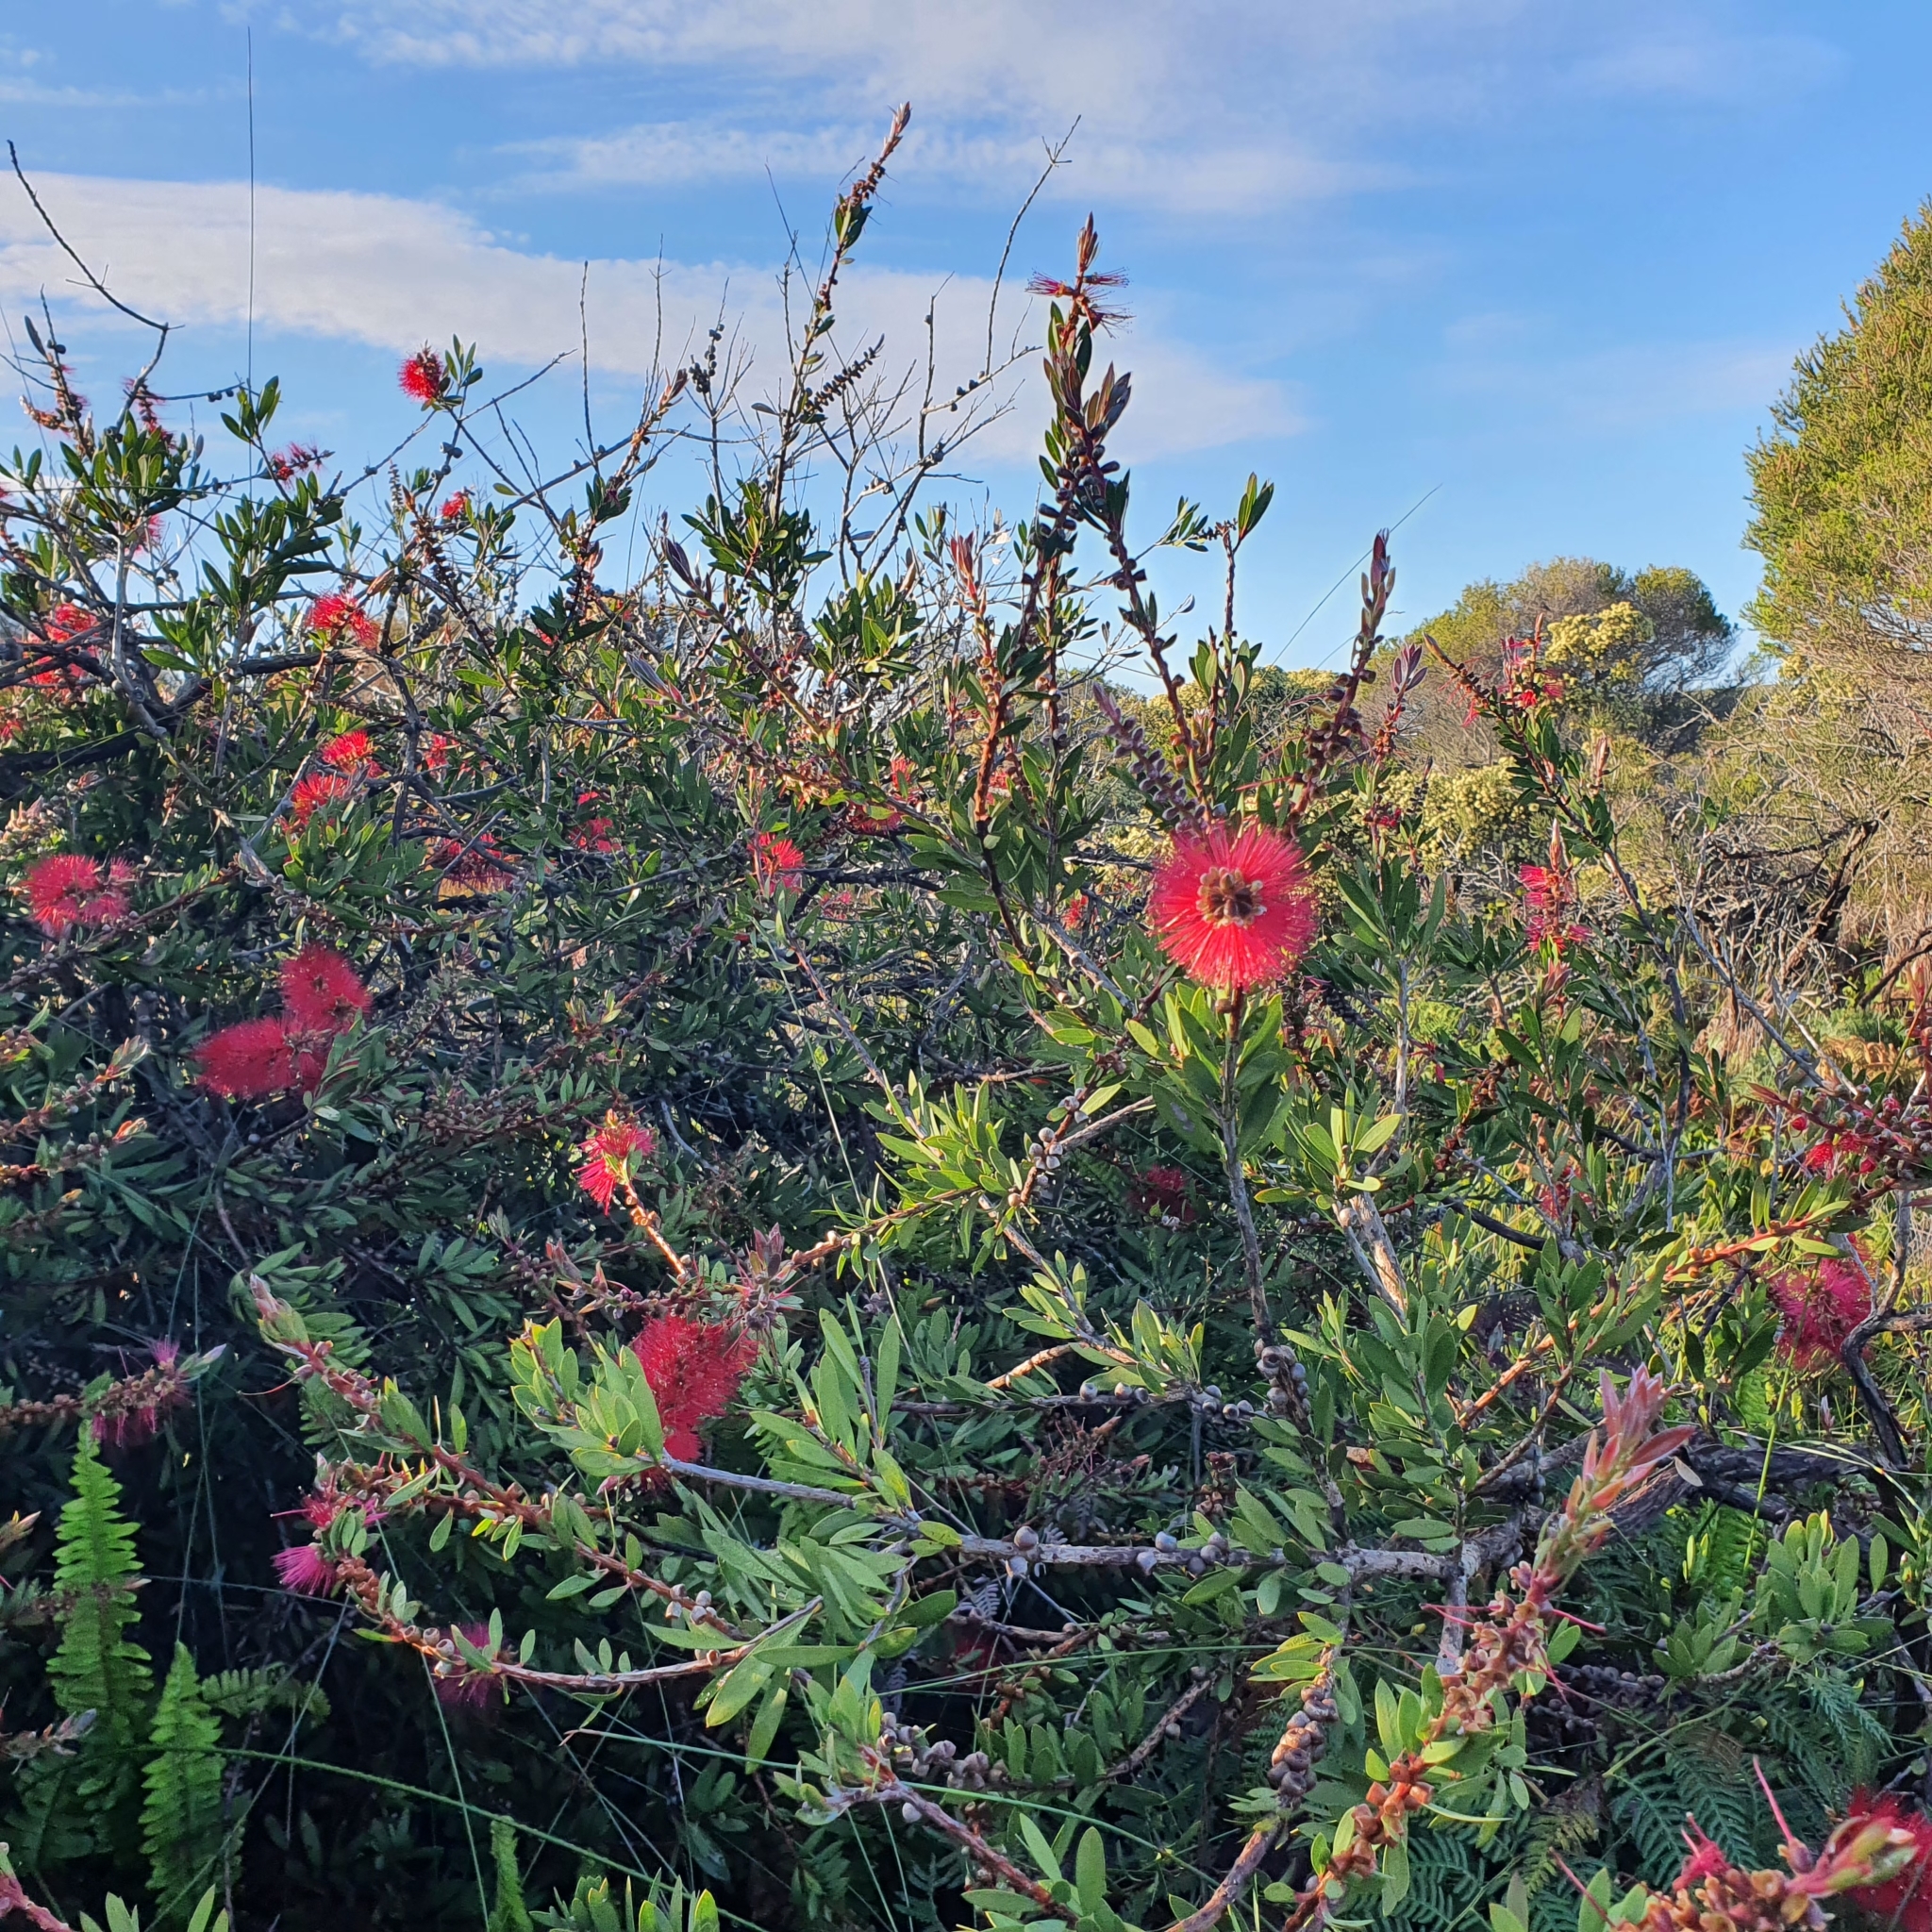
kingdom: Plantae
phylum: Tracheophyta
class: Magnoliopsida
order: Myrtales
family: Myrtaceae
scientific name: Myrtaceae
